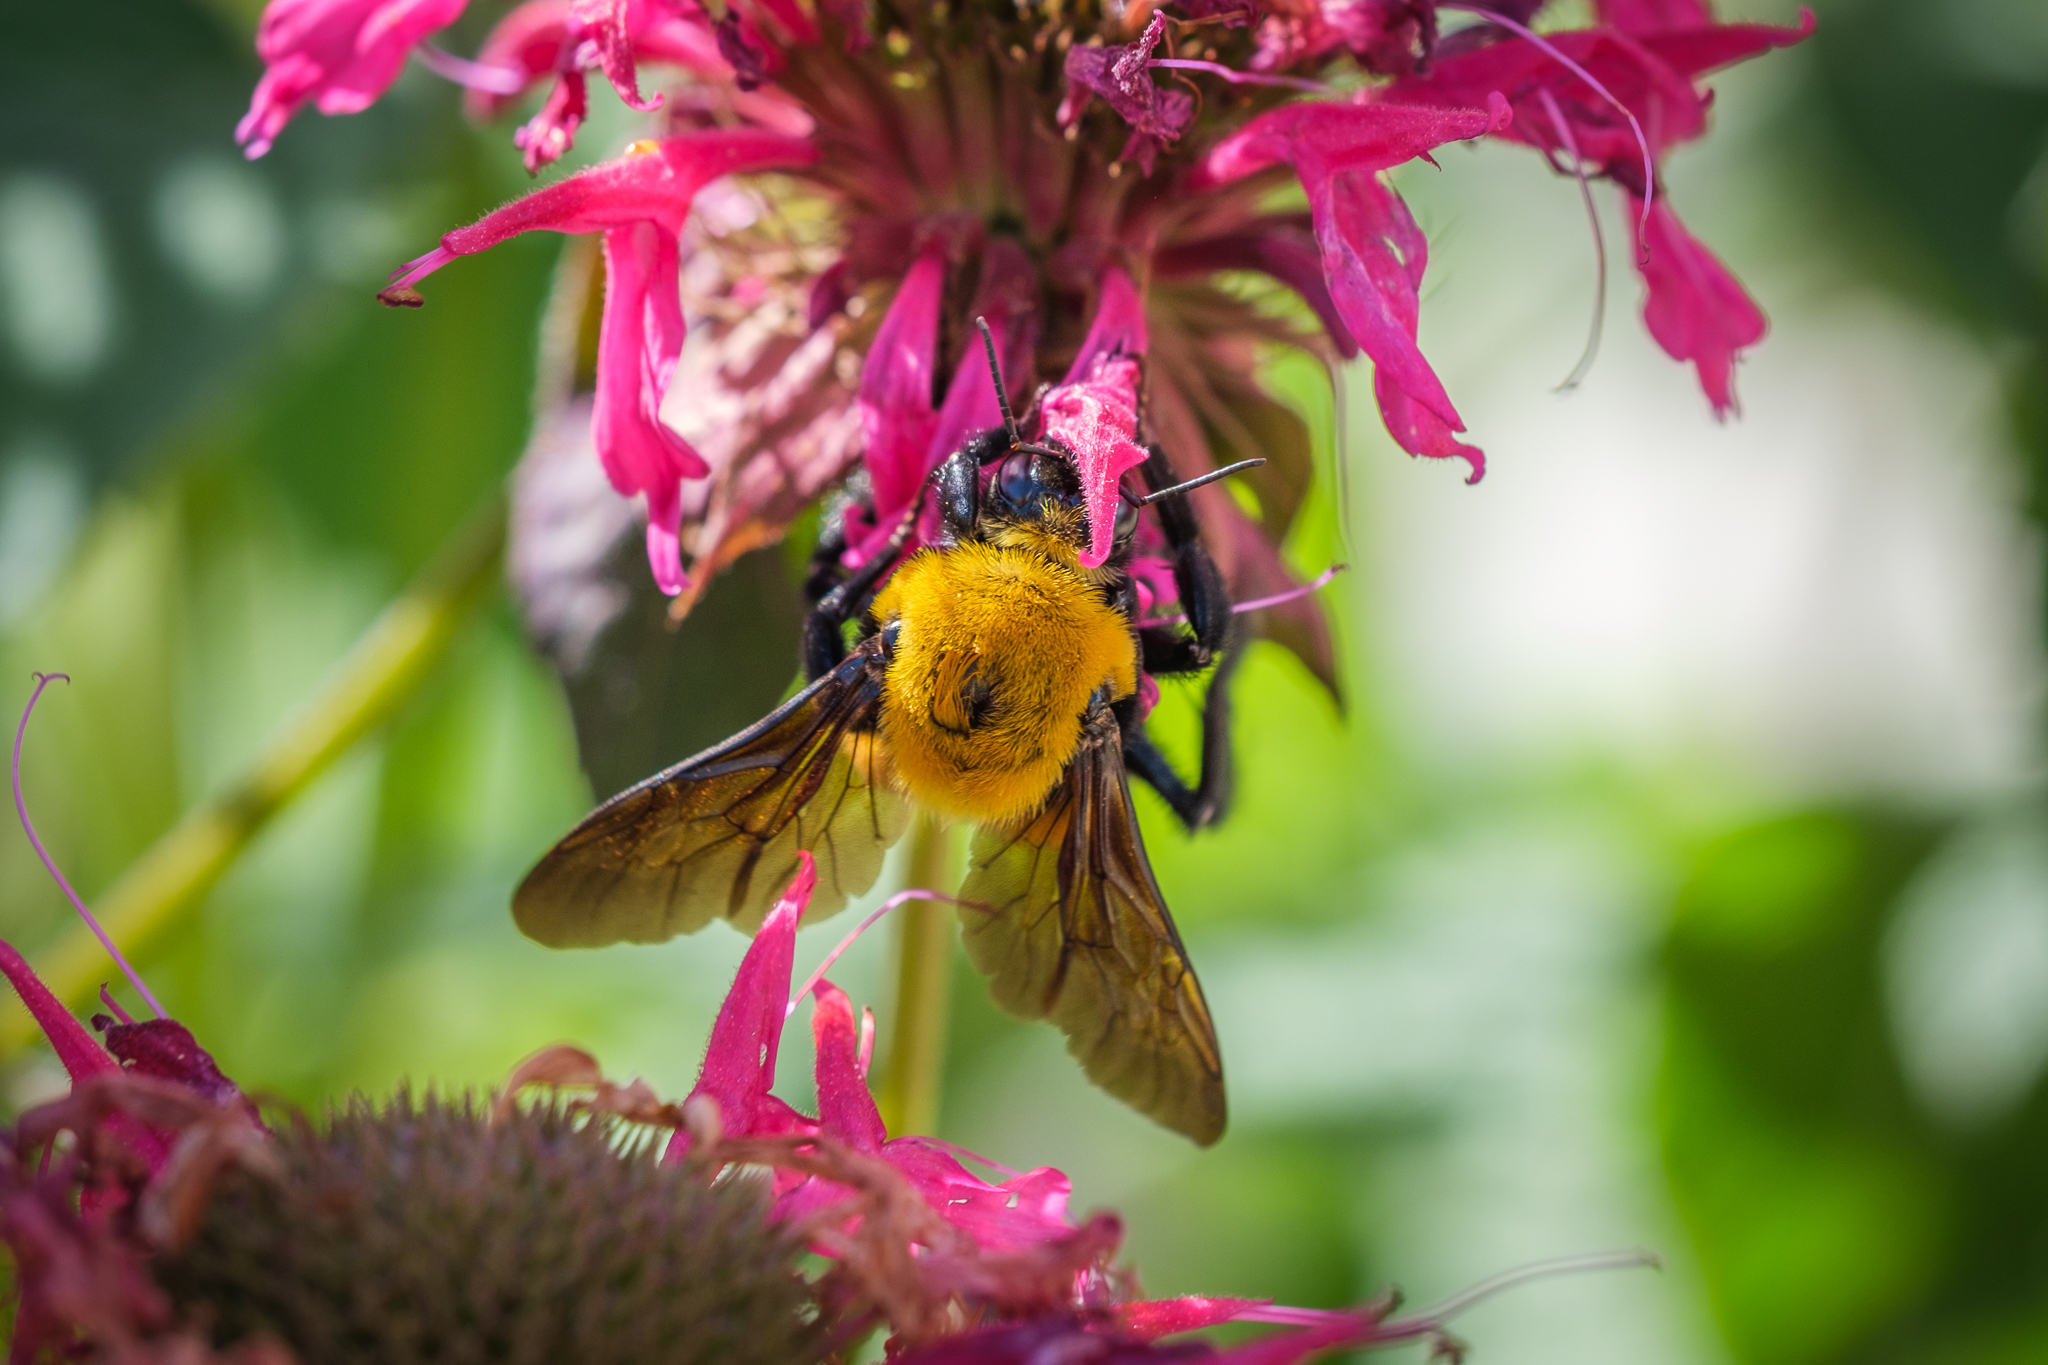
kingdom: Animalia
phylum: Arthropoda
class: Insecta
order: Hymenoptera
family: Apidae
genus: Bombus
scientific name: Bombus morrisoni
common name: Morrison bumble bee
